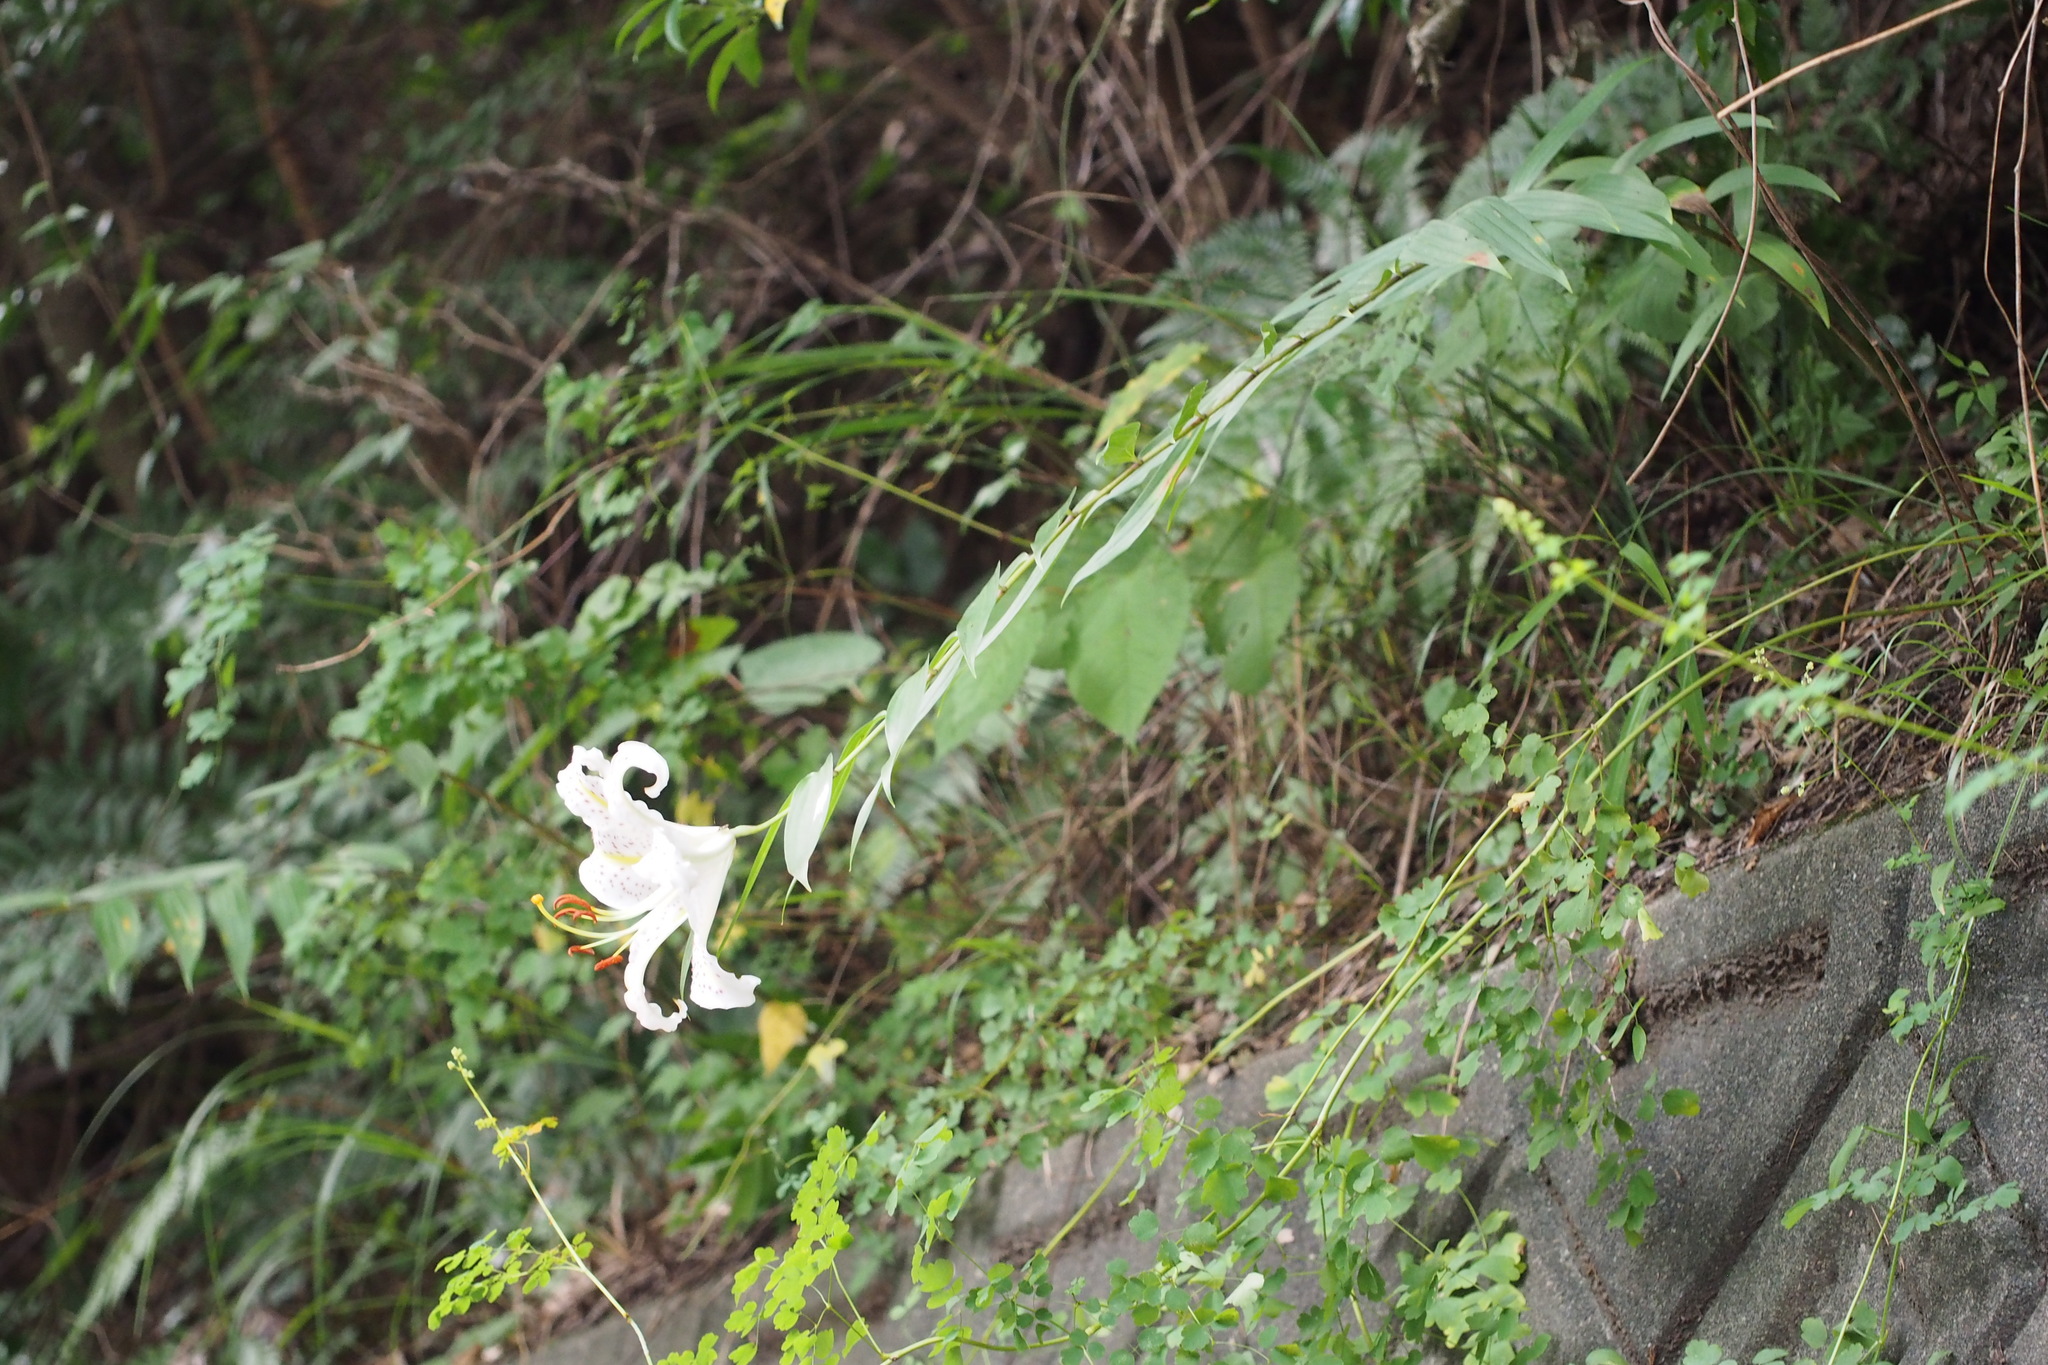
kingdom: Plantae
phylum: Tracheophyta
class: Liliopsida
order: Liliales
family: Liliaceae
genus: Lilium
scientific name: Lilium auratum
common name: Golden-ray lily
